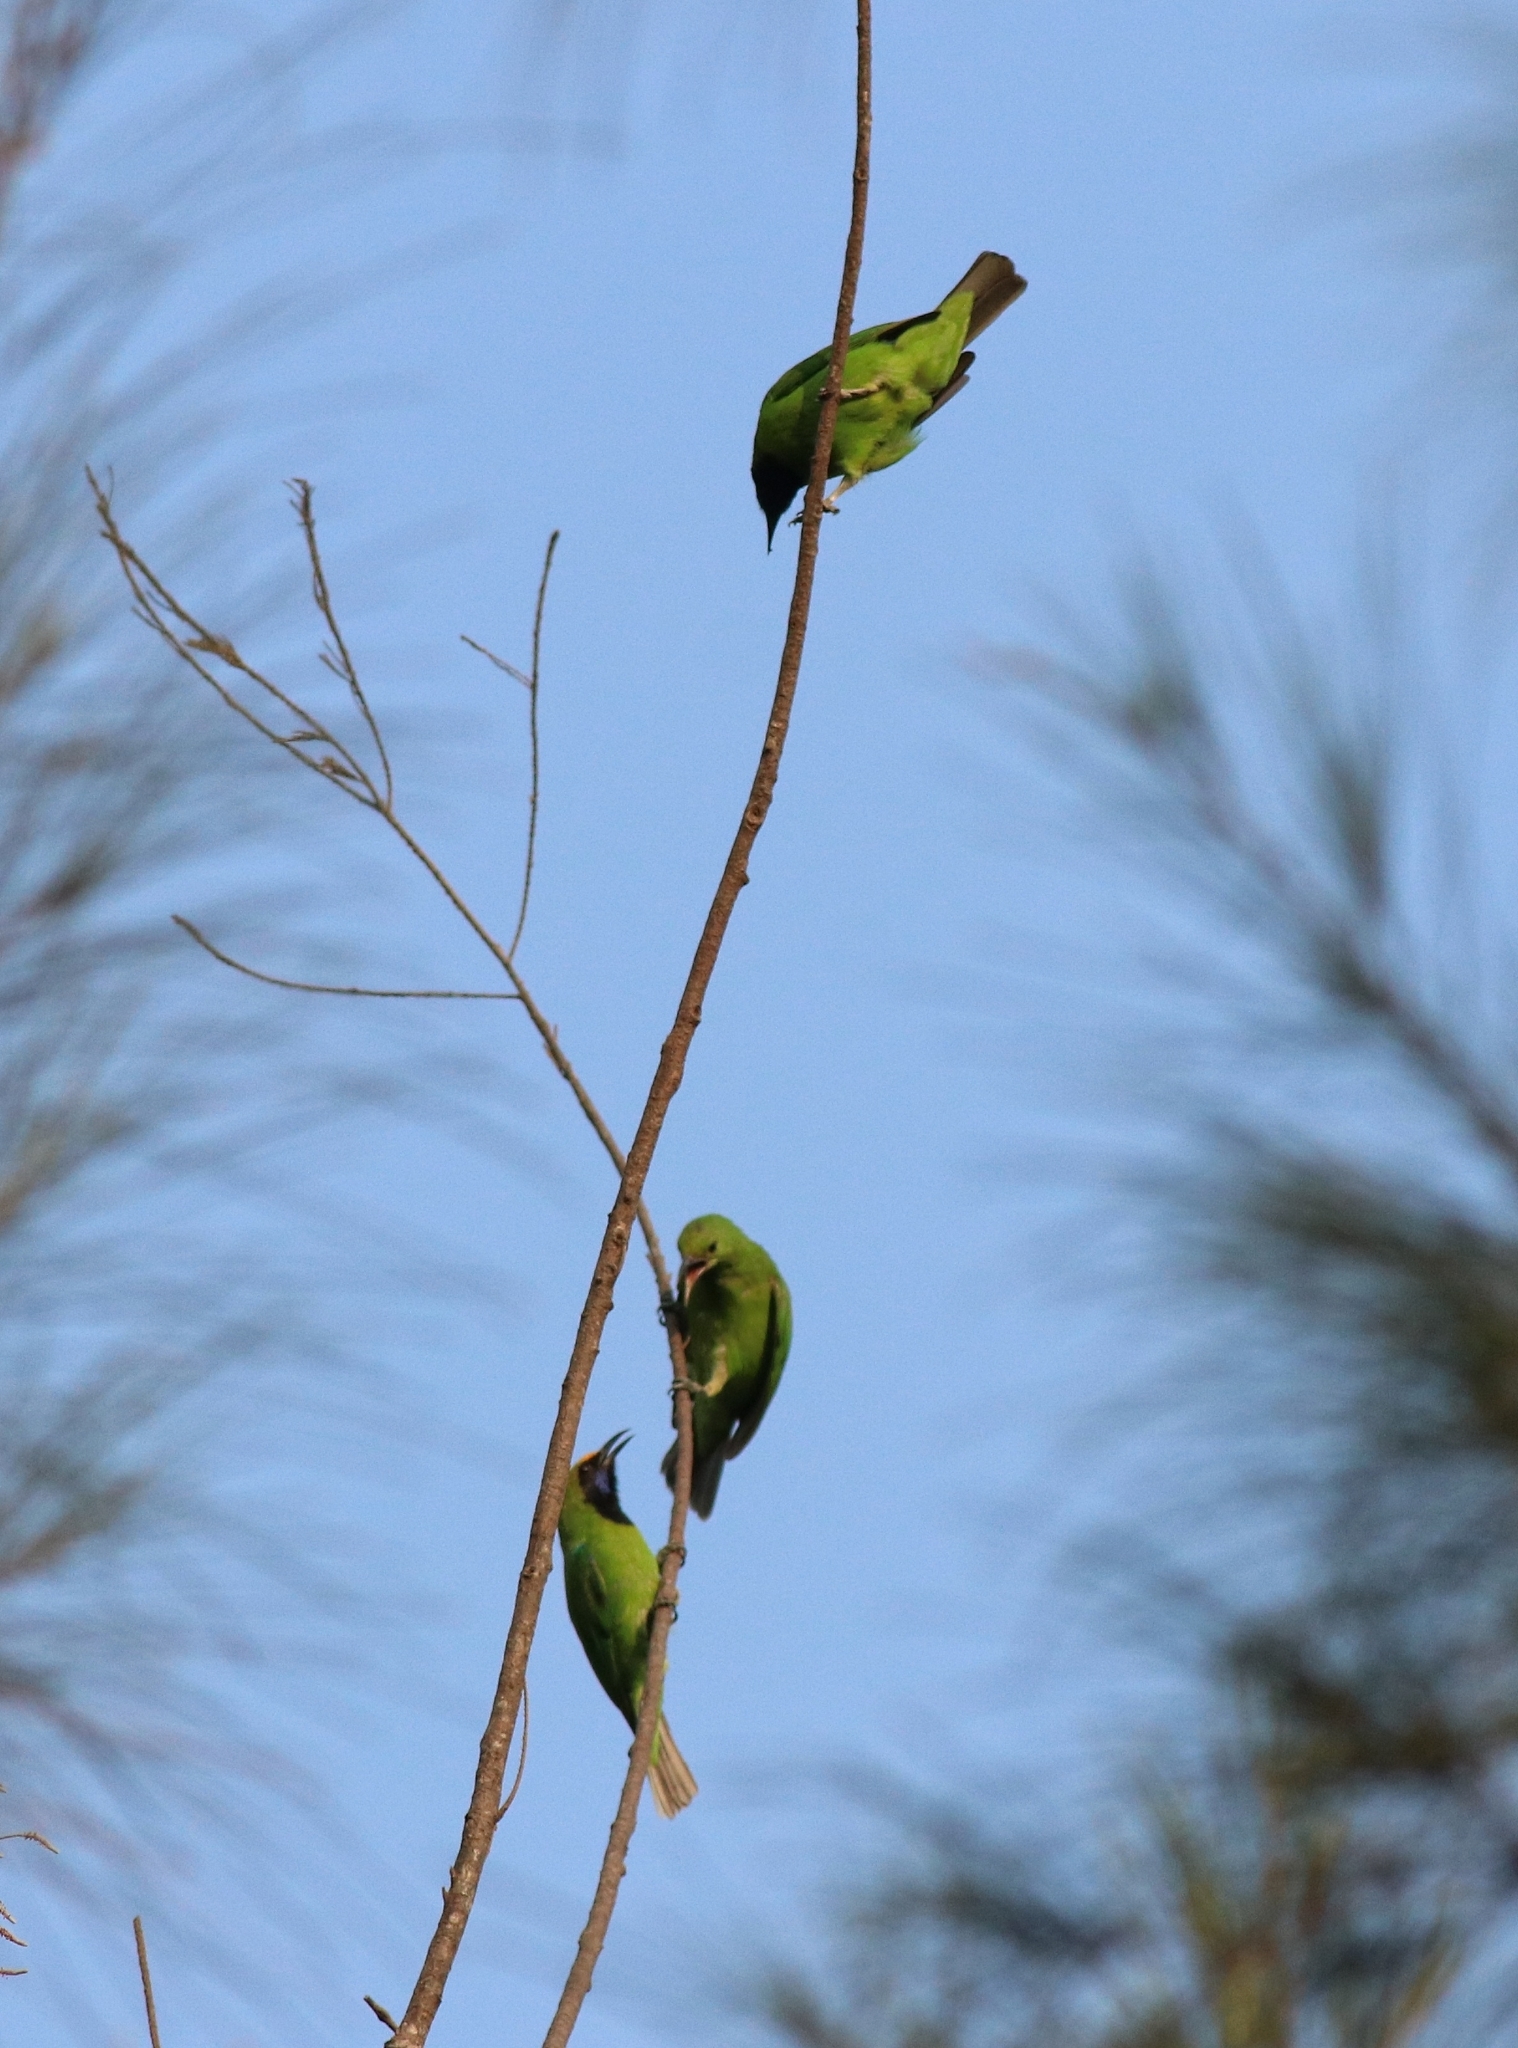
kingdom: Animalia
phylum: Chordata
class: Aves
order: Passeriformes
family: Chloropseidae
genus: Chloropsis
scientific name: Chloropsis aurifrons
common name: Golden-fronted leafbird
